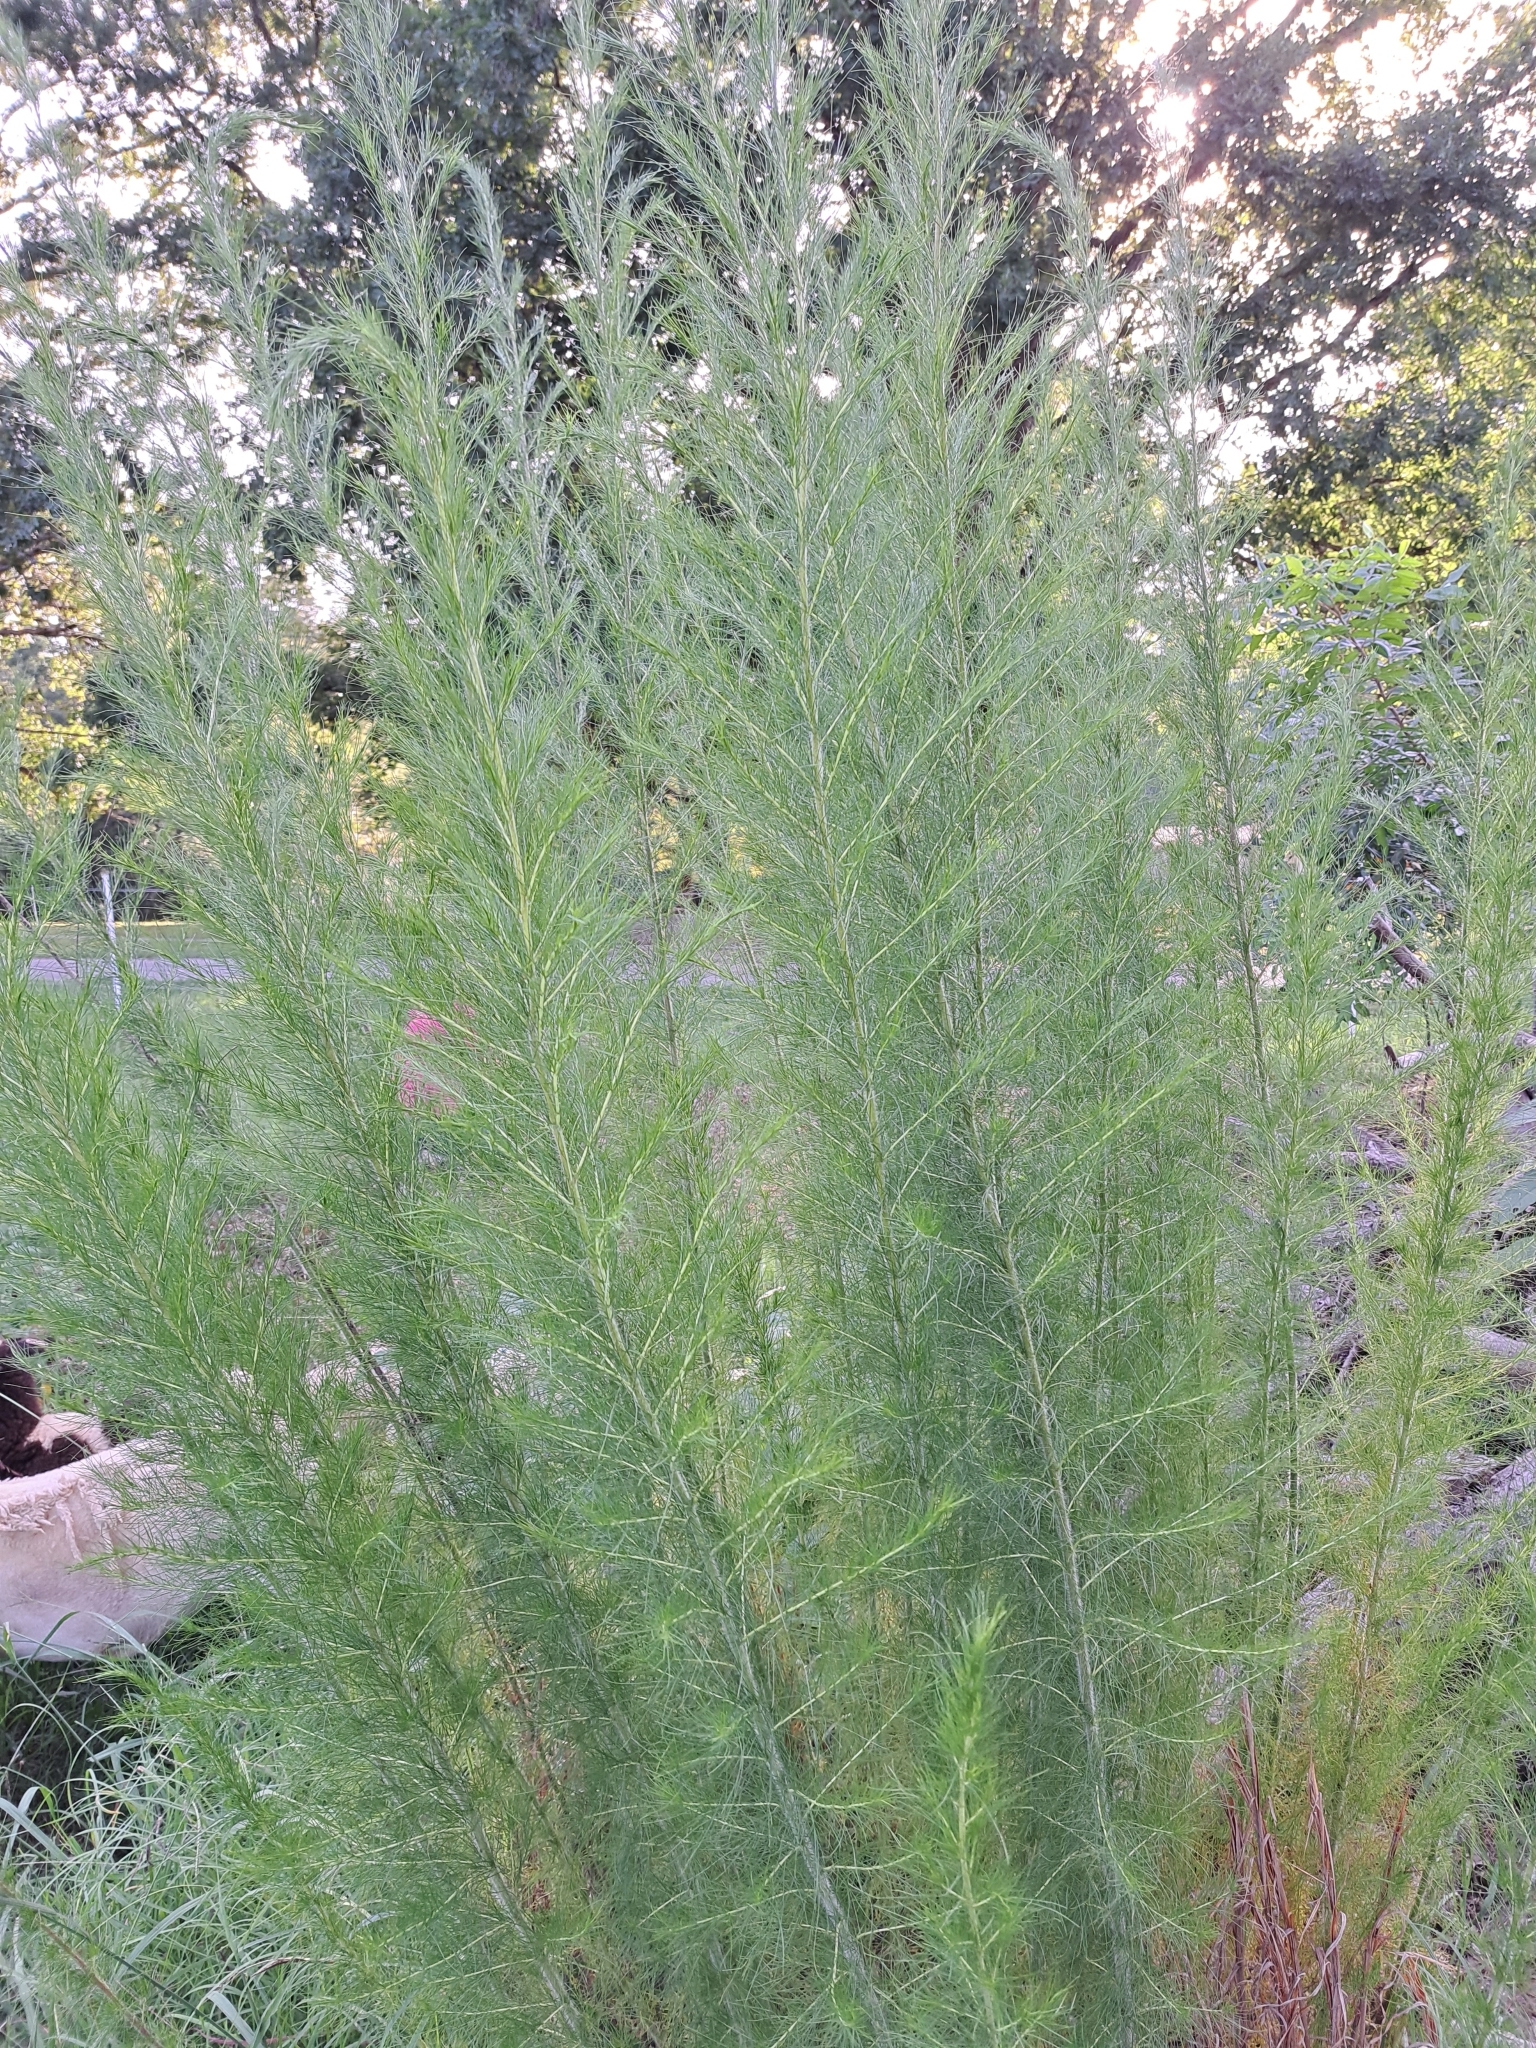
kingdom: Plantae
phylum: Tracheophyta
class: Magnoliopsida
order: Asterales
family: Asteraceae
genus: Eupatorium
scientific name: Eupatorium capillifolium
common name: Dog-fennel
